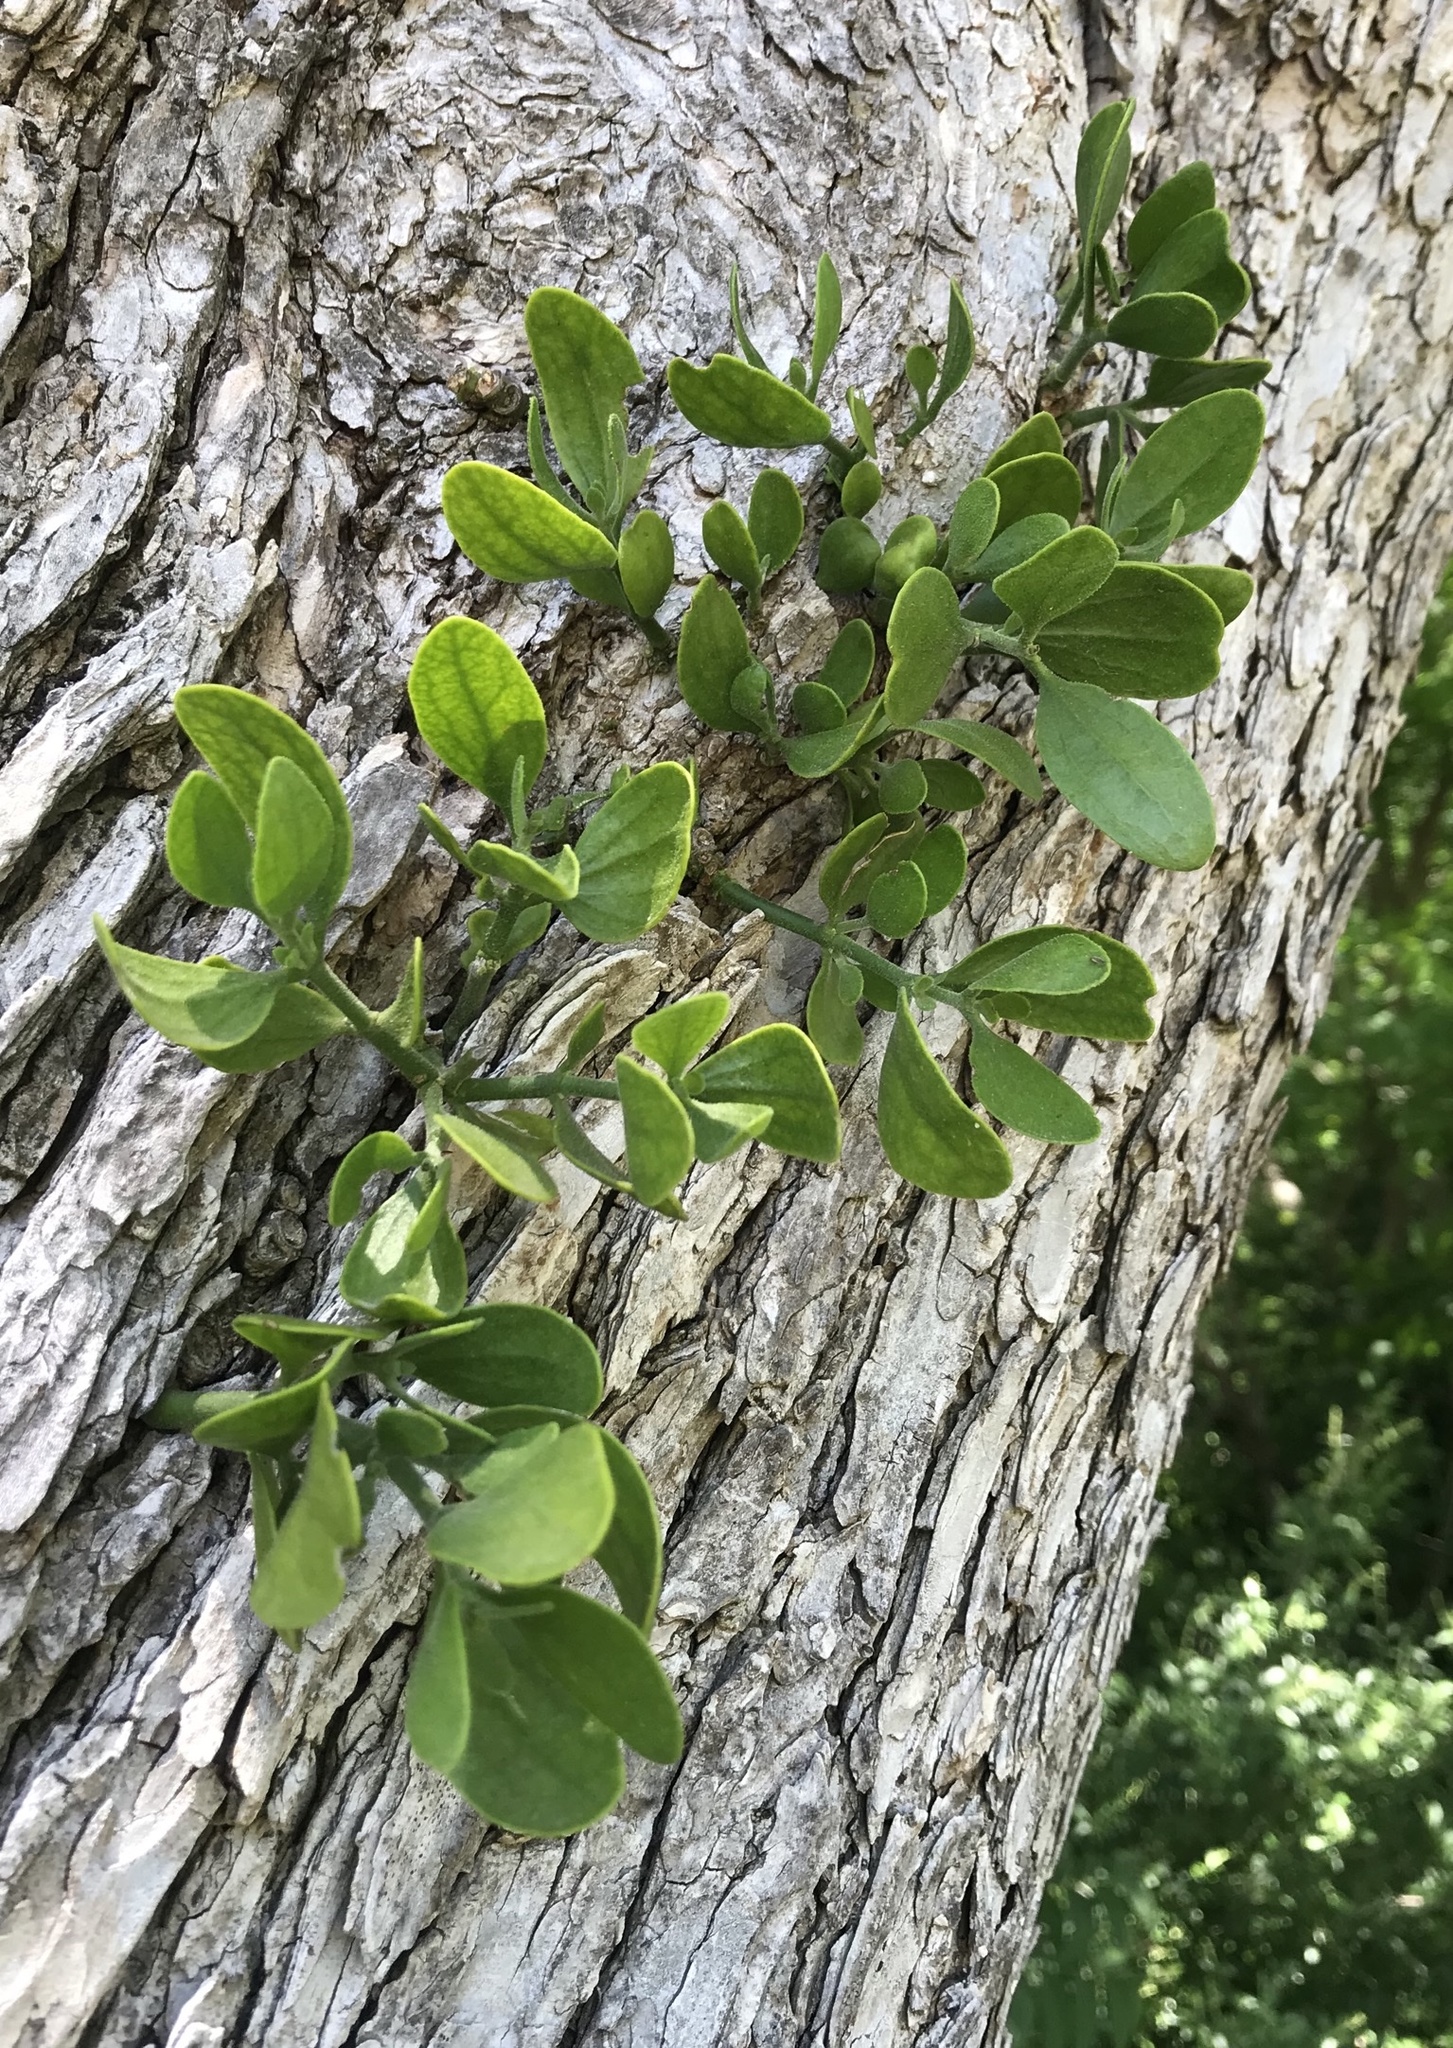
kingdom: Plantae
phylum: Tracheophyta
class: Magnoliopsida
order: Santalales
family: Viscaceae
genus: Phoradendron
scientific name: Phoradendron leucarpum
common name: Pacific mistletoe
